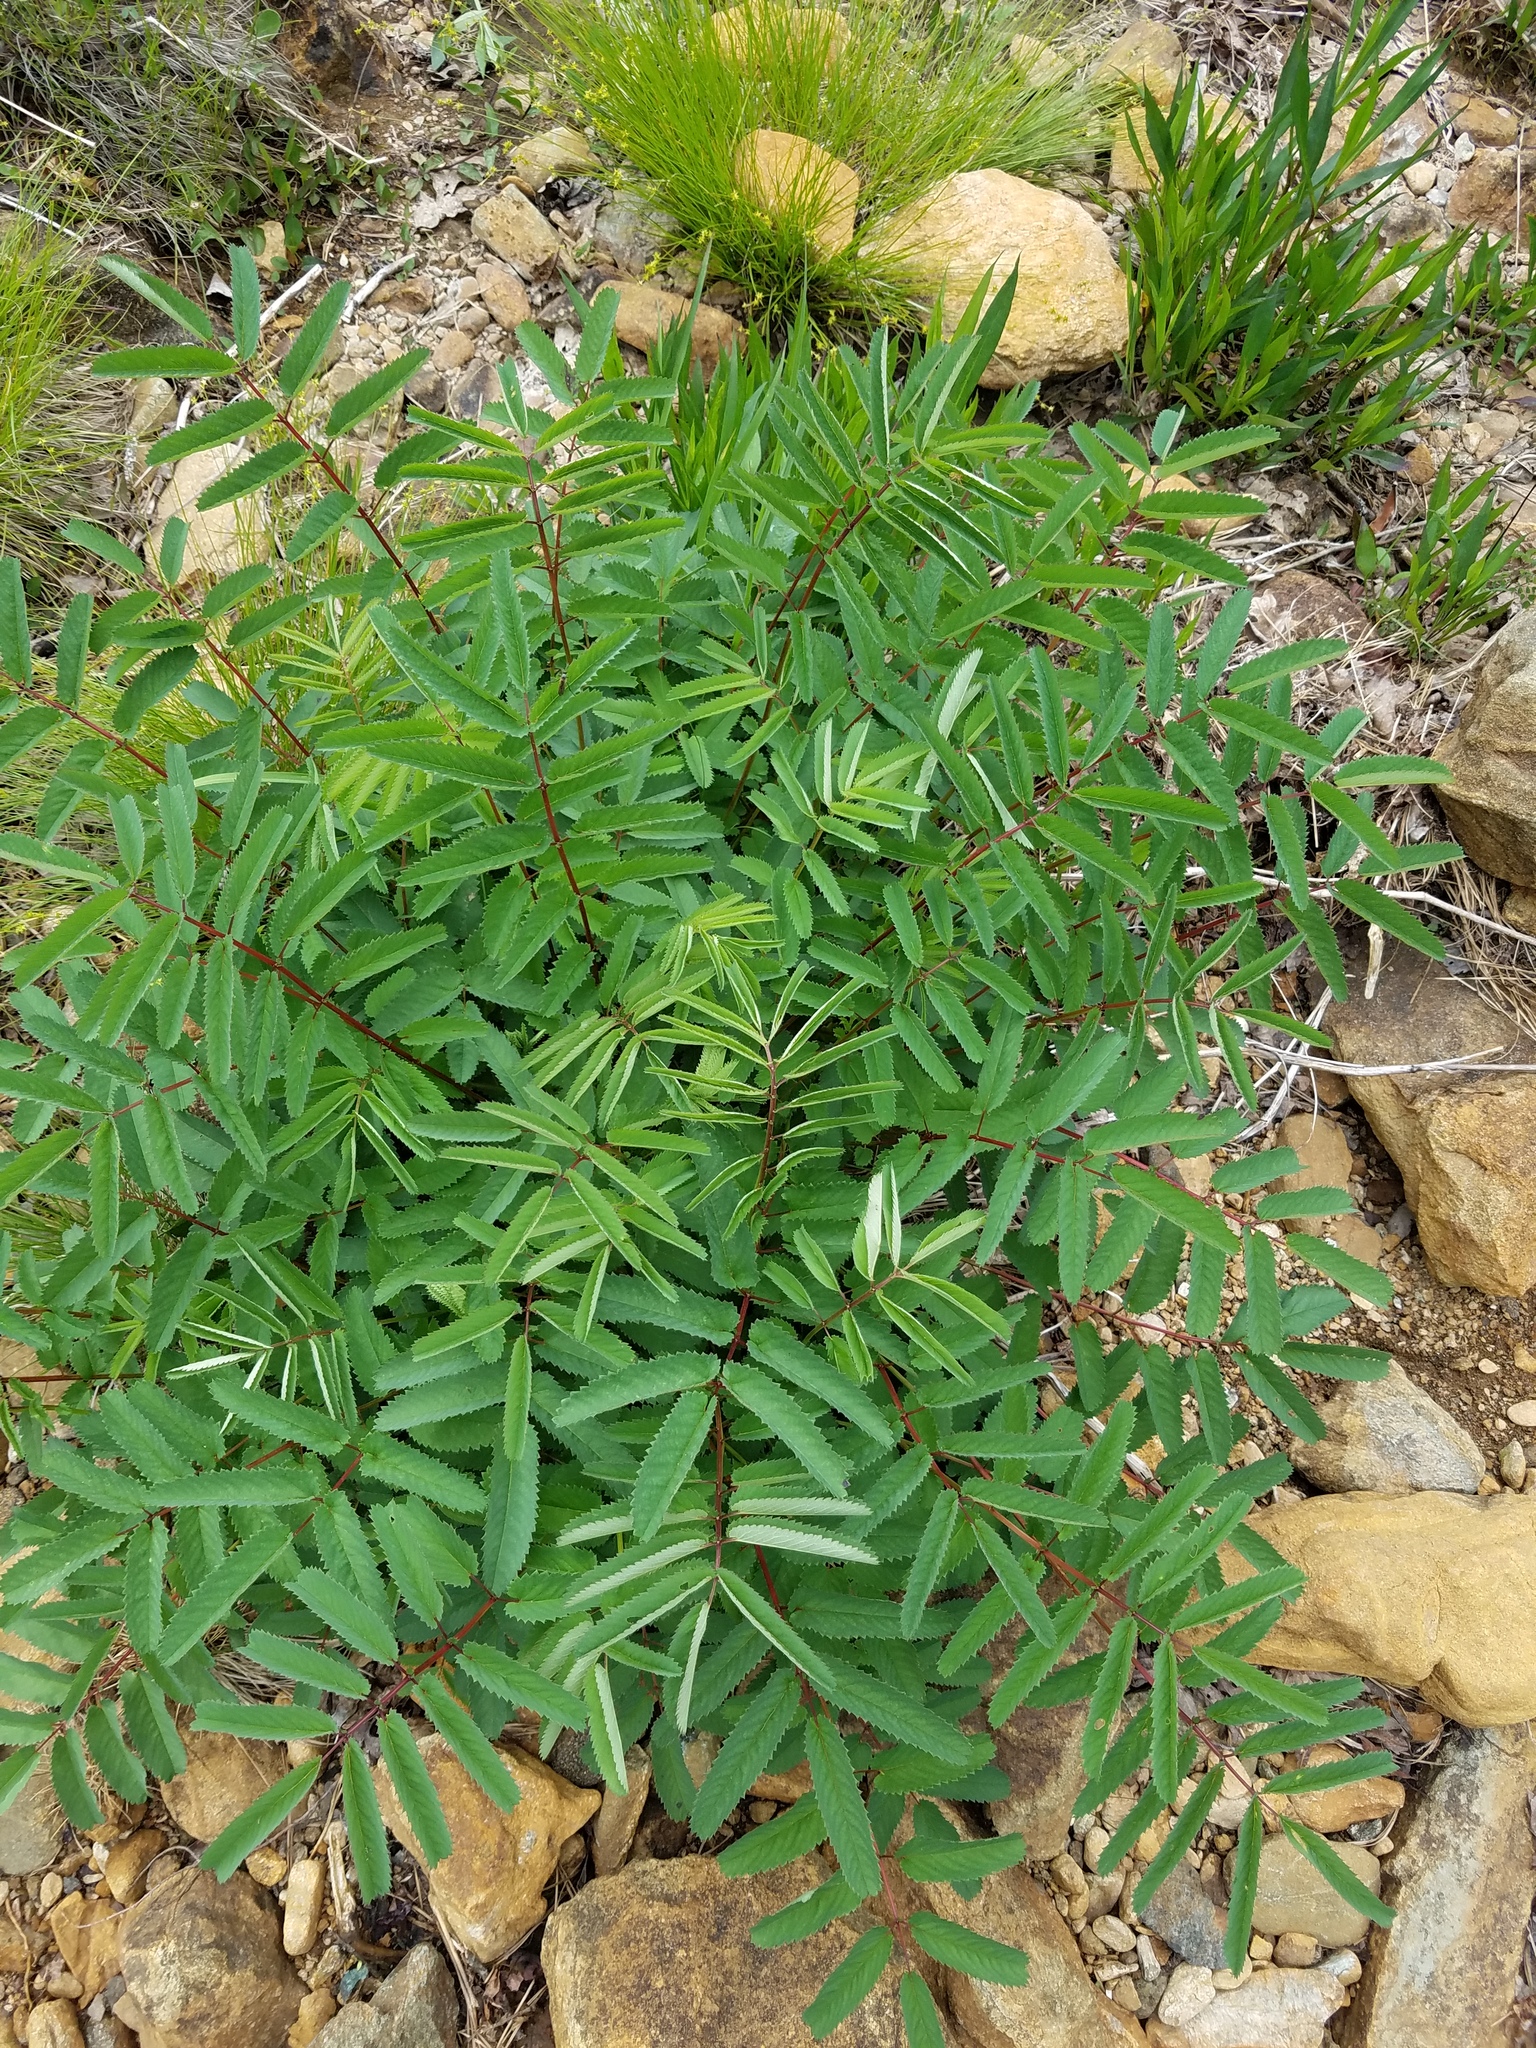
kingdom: Plantae
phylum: Tracheophyta
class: Magnoliopsida
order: Rosales
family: Rosaceae
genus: Sanguisorba
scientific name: Sanguisorba canadensis
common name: White burnet
